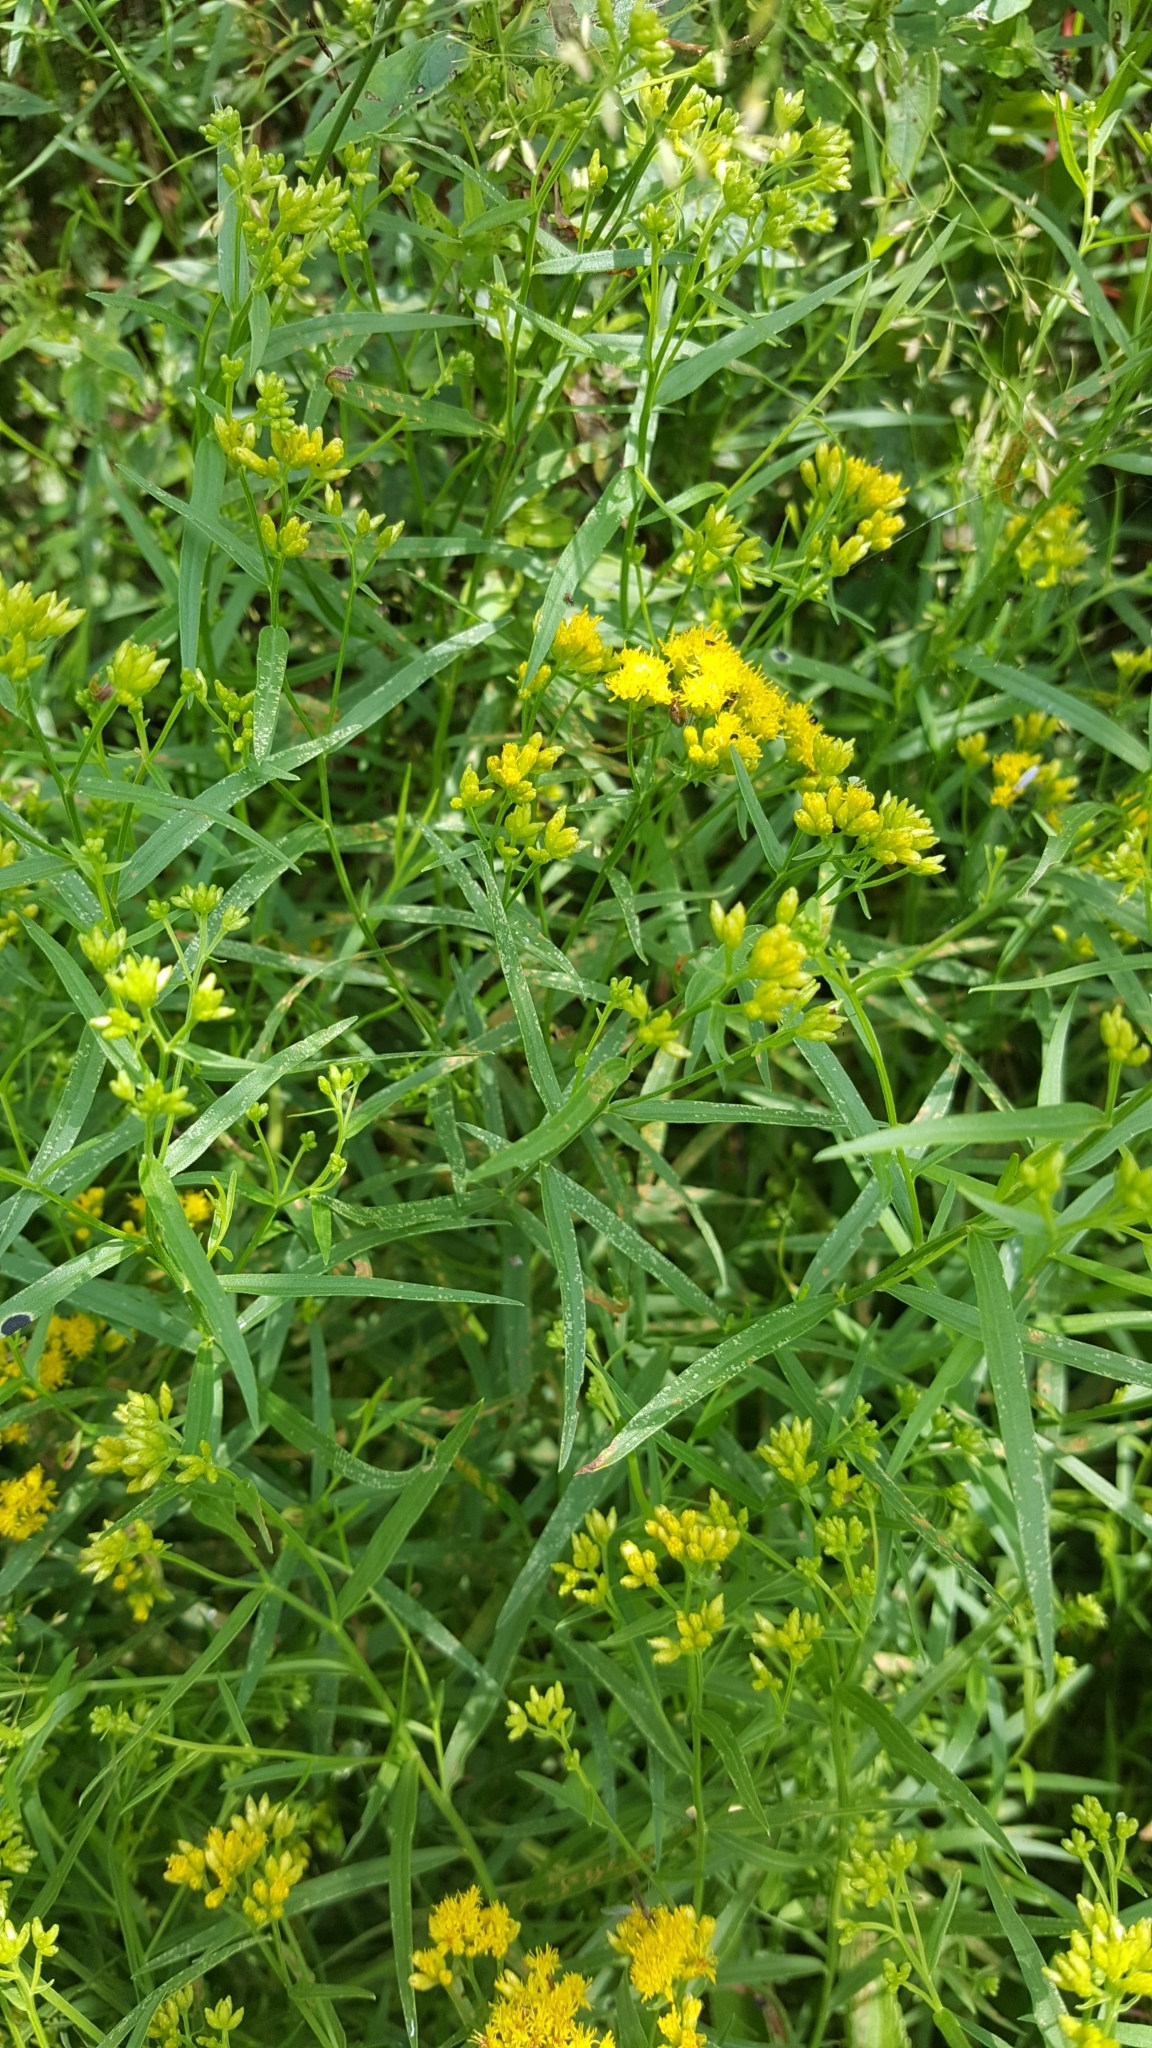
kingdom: Plantae
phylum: Tracheophyta
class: Magnoliopsida
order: Asterales
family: Asteraceae
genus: Euthamia
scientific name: Euthamia graminifolia
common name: Common goldentop
